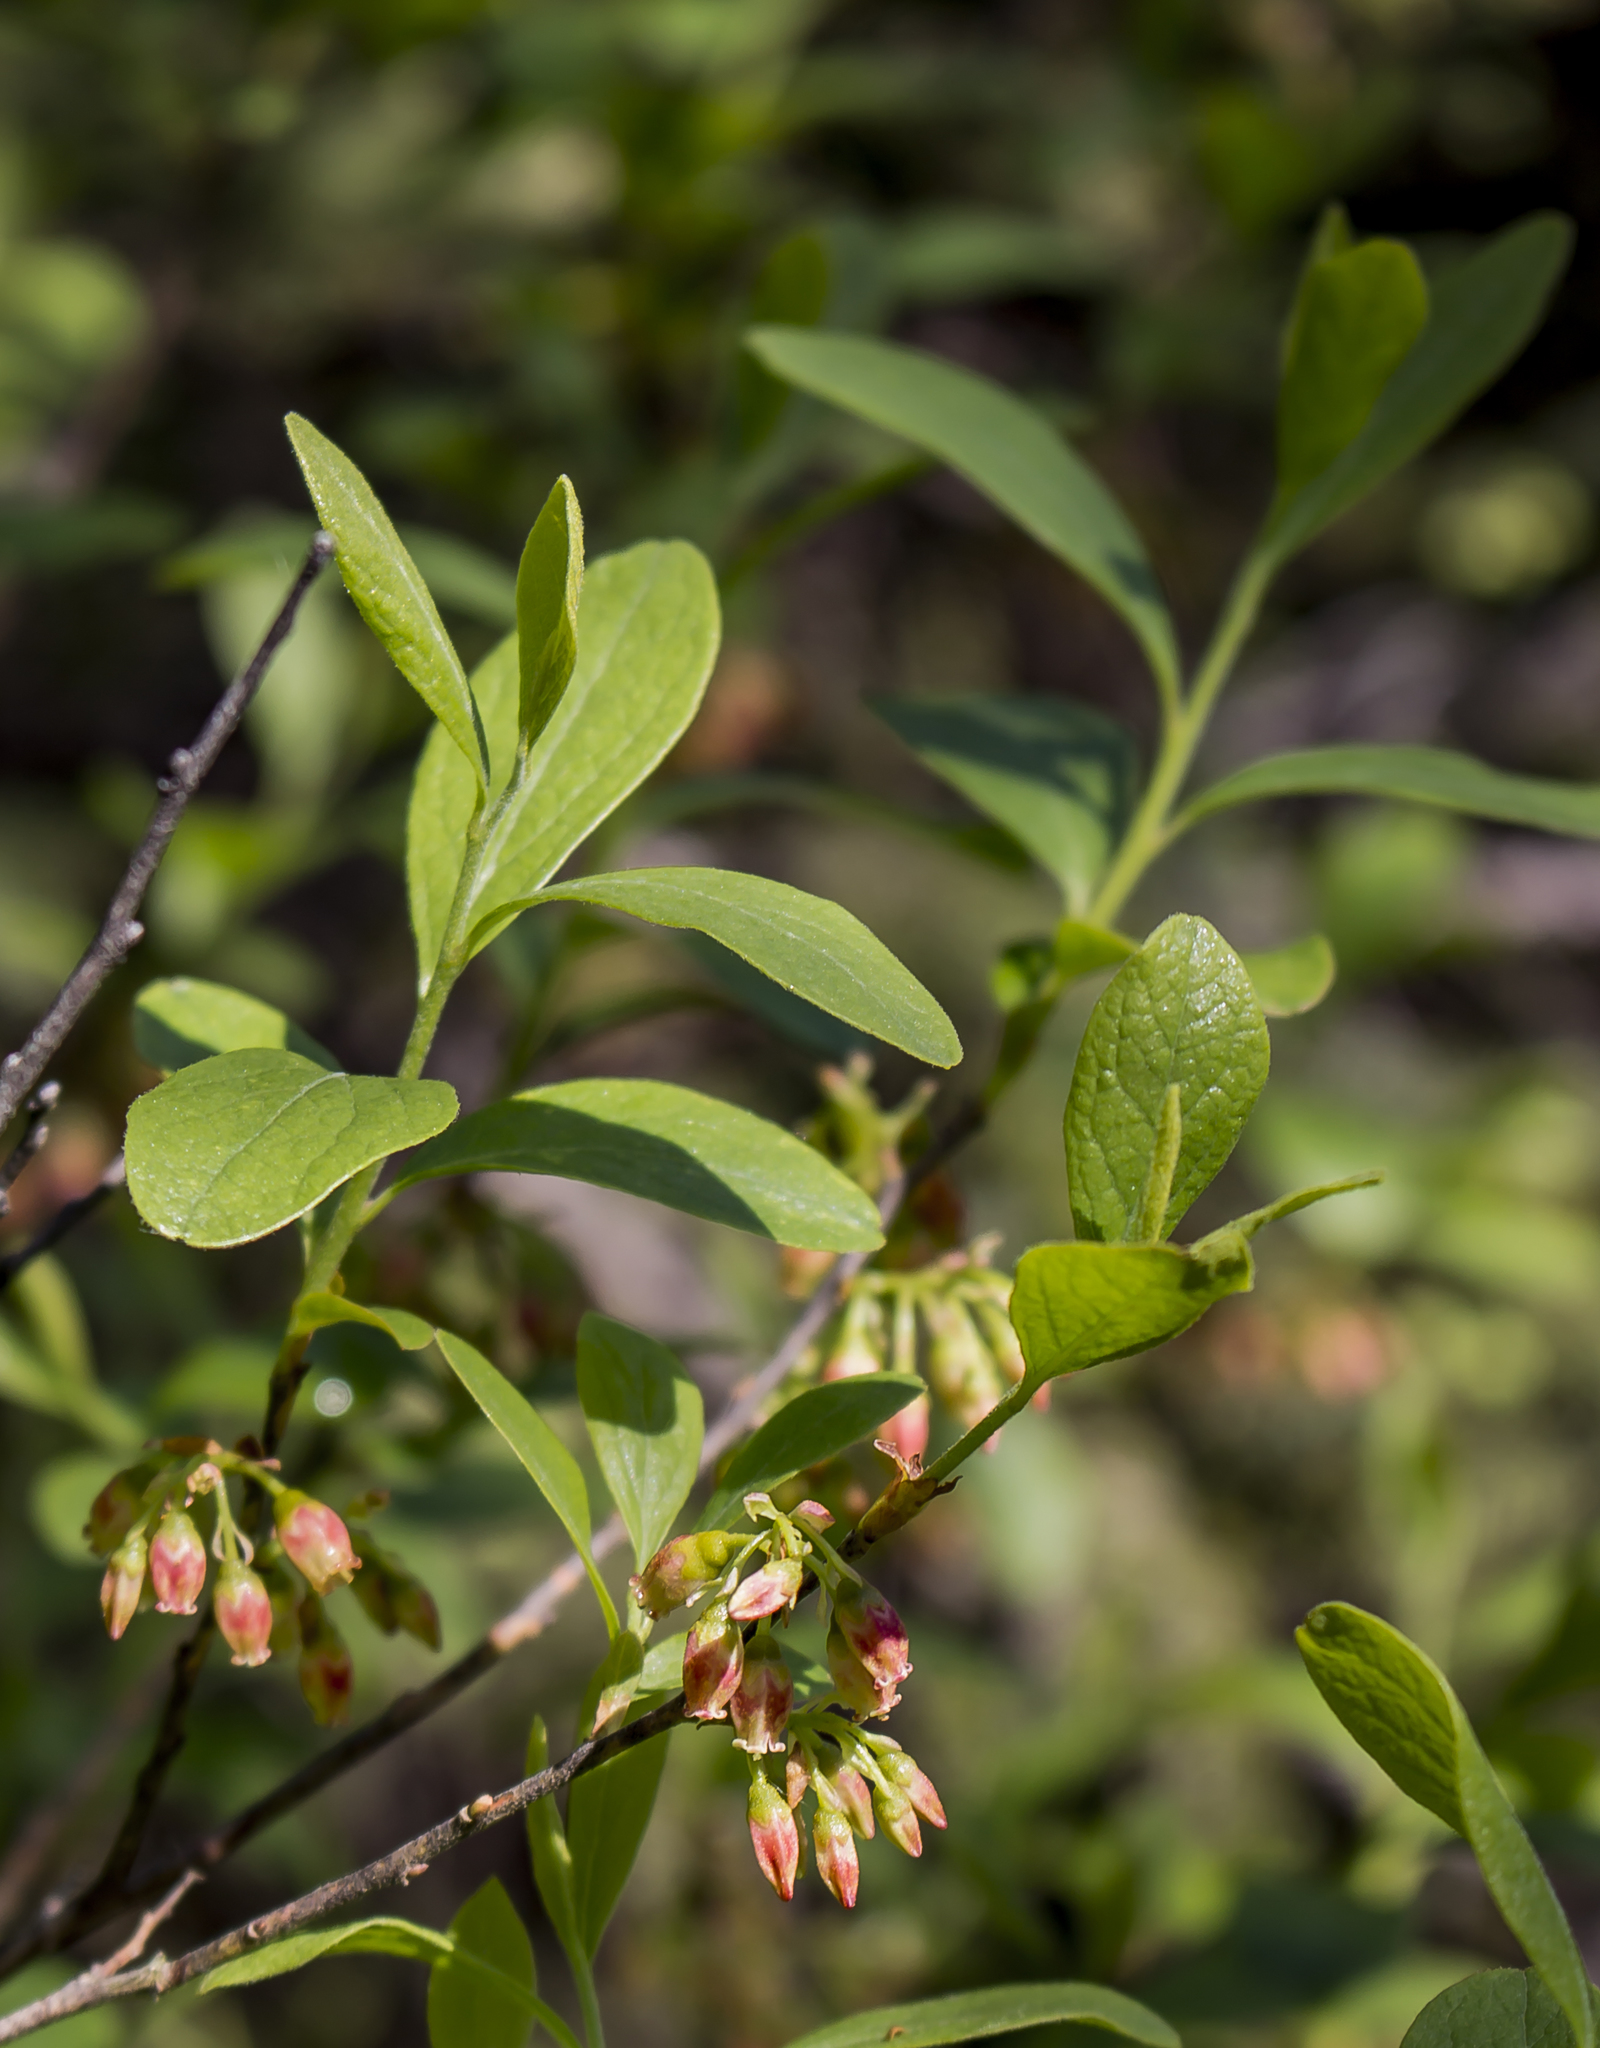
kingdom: Plantae
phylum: Tracheophyta
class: Magnoliopsida
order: Ericales
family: Ericaceae
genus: Gaylussacia
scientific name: Gaylussacia baccata
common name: Black huckleberry
